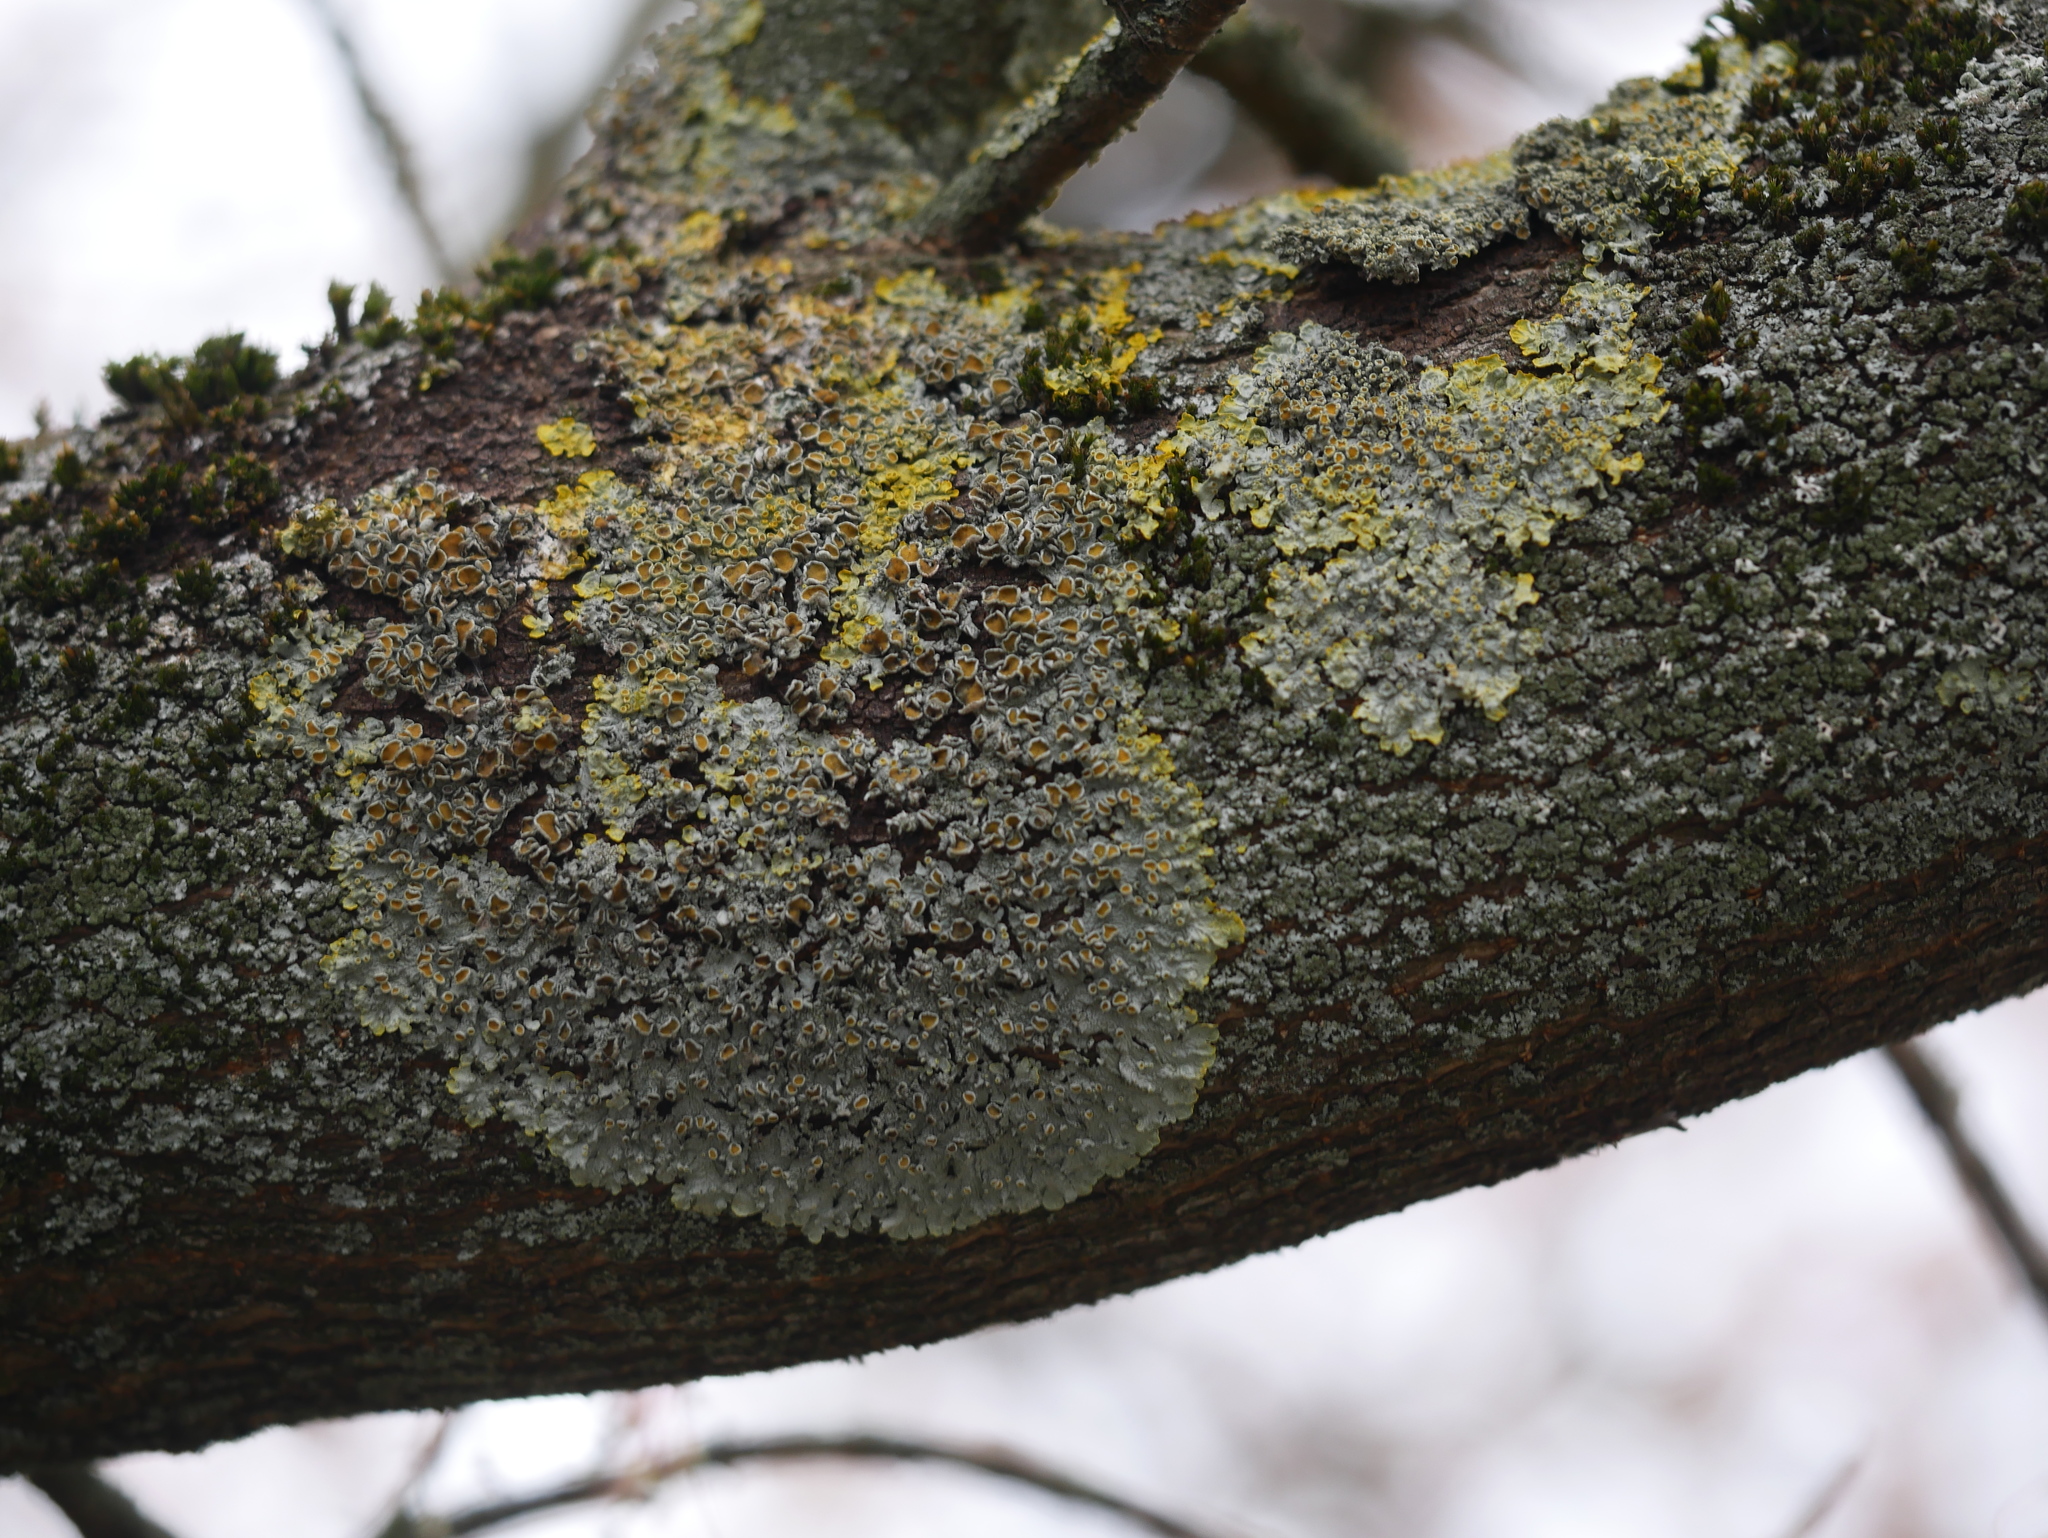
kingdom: Fungi
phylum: Ascomycota
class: Lecanoromycetes
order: Teloschistales
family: Teloschistaceae
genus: Xanthoria
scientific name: Xanthoria parietina
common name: Common orange lichen
